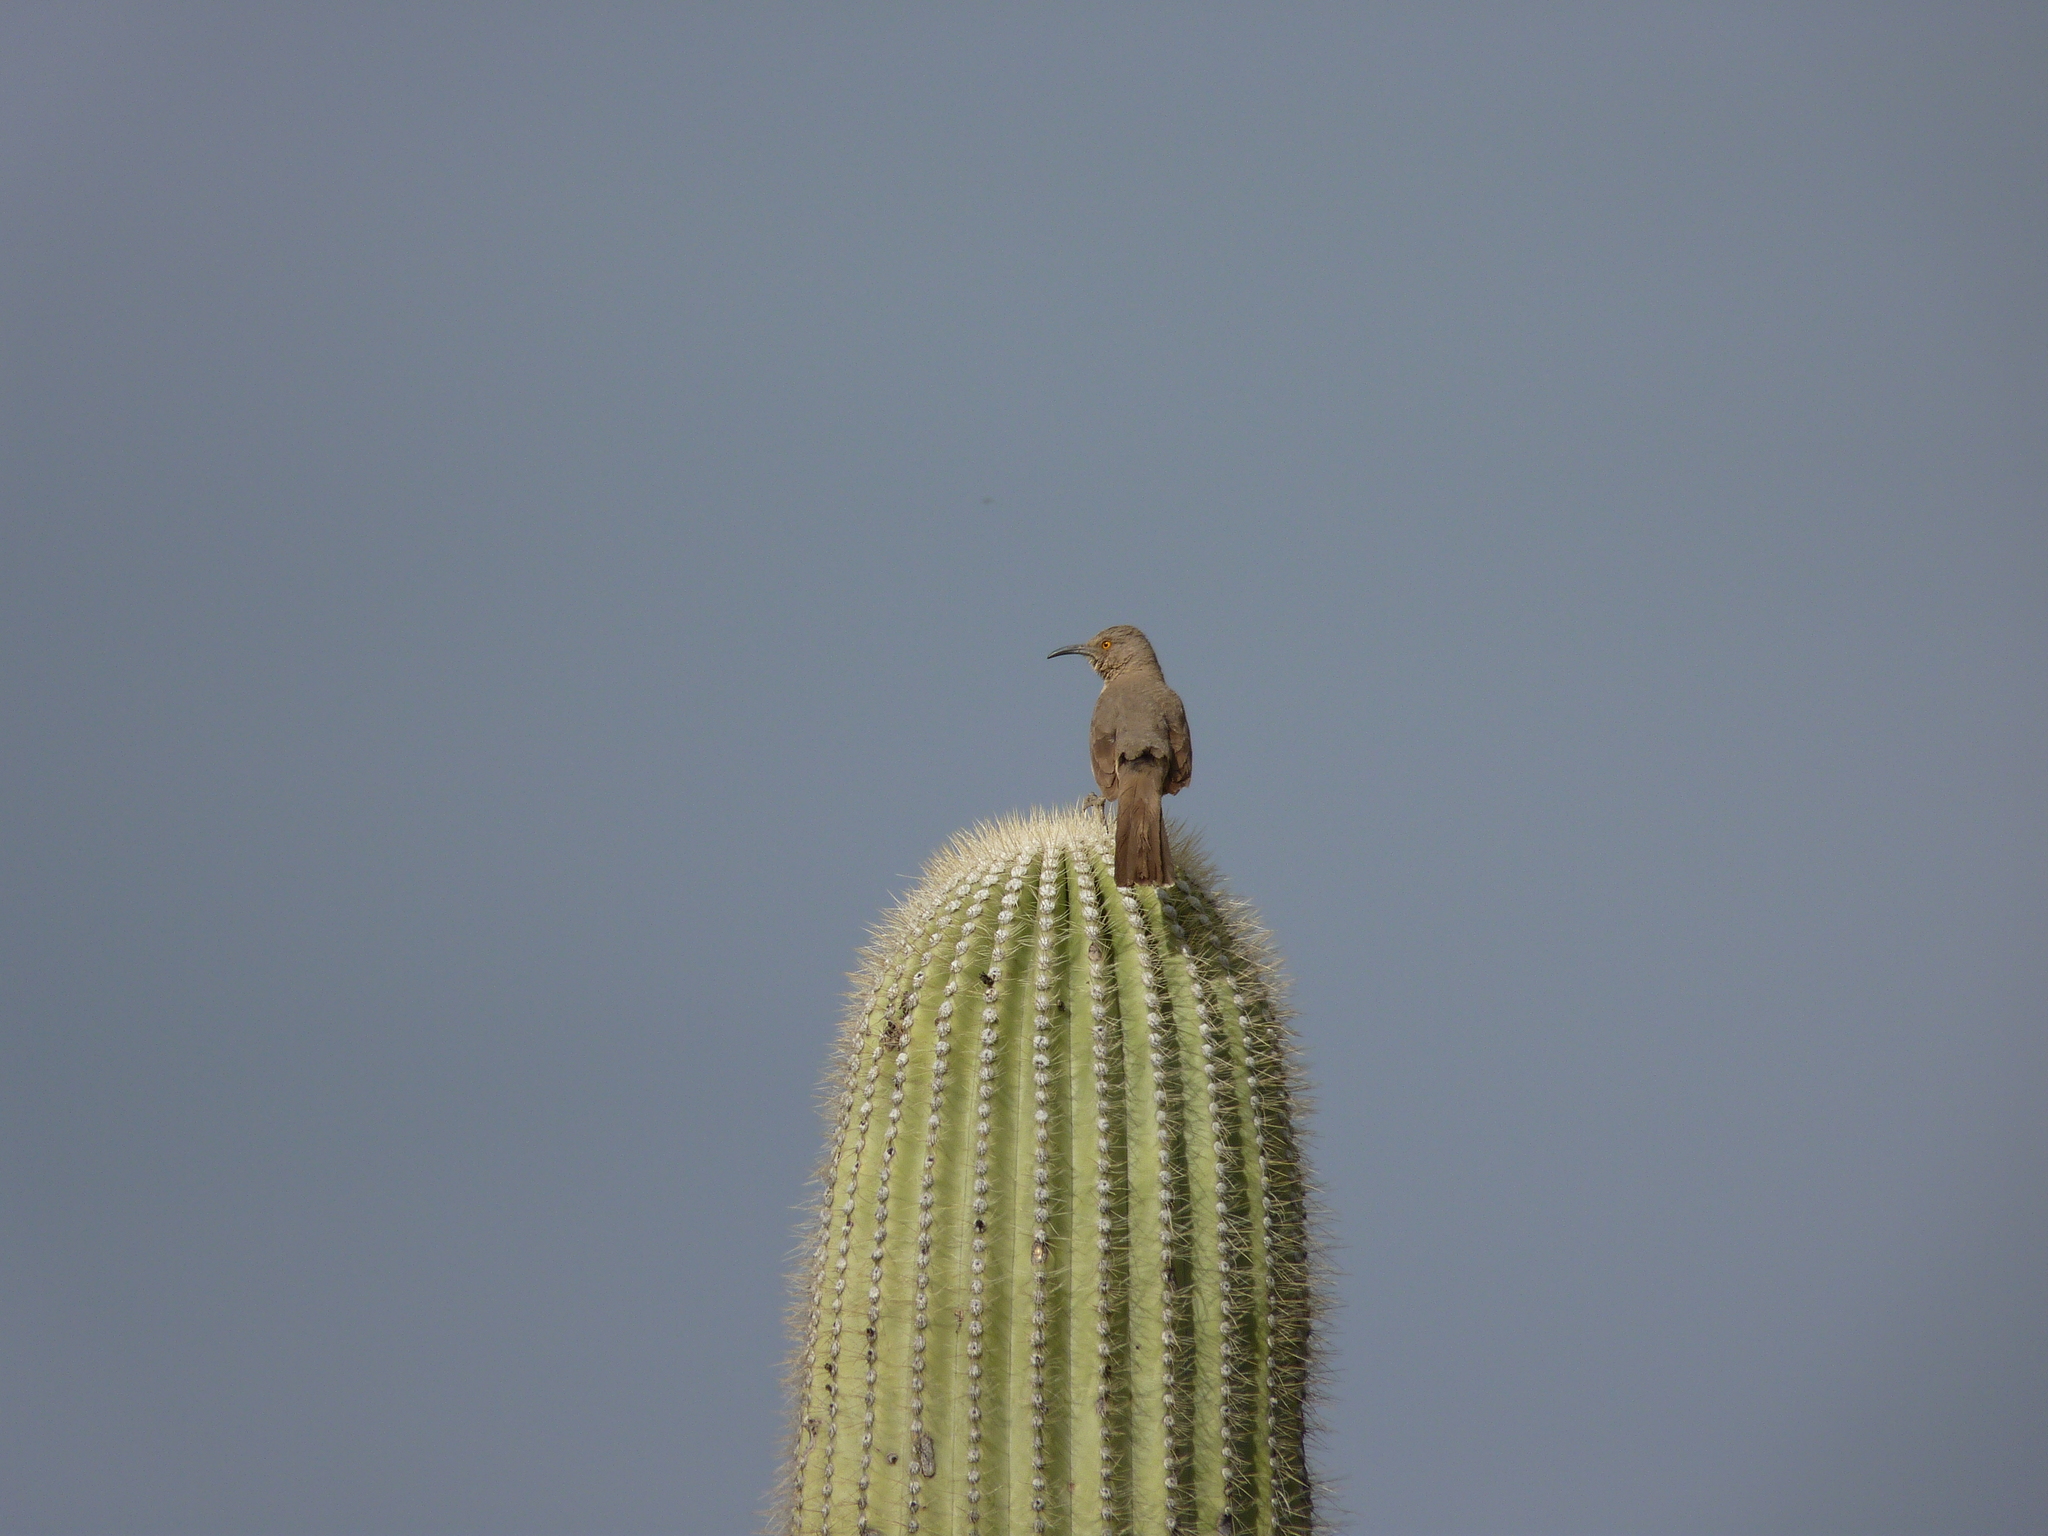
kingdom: Animalia
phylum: Chordata
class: Aves
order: Passeriformes
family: Mimidae
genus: Toxostoma
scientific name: Toxostoma curvirostre
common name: Curve-billed thrasher
